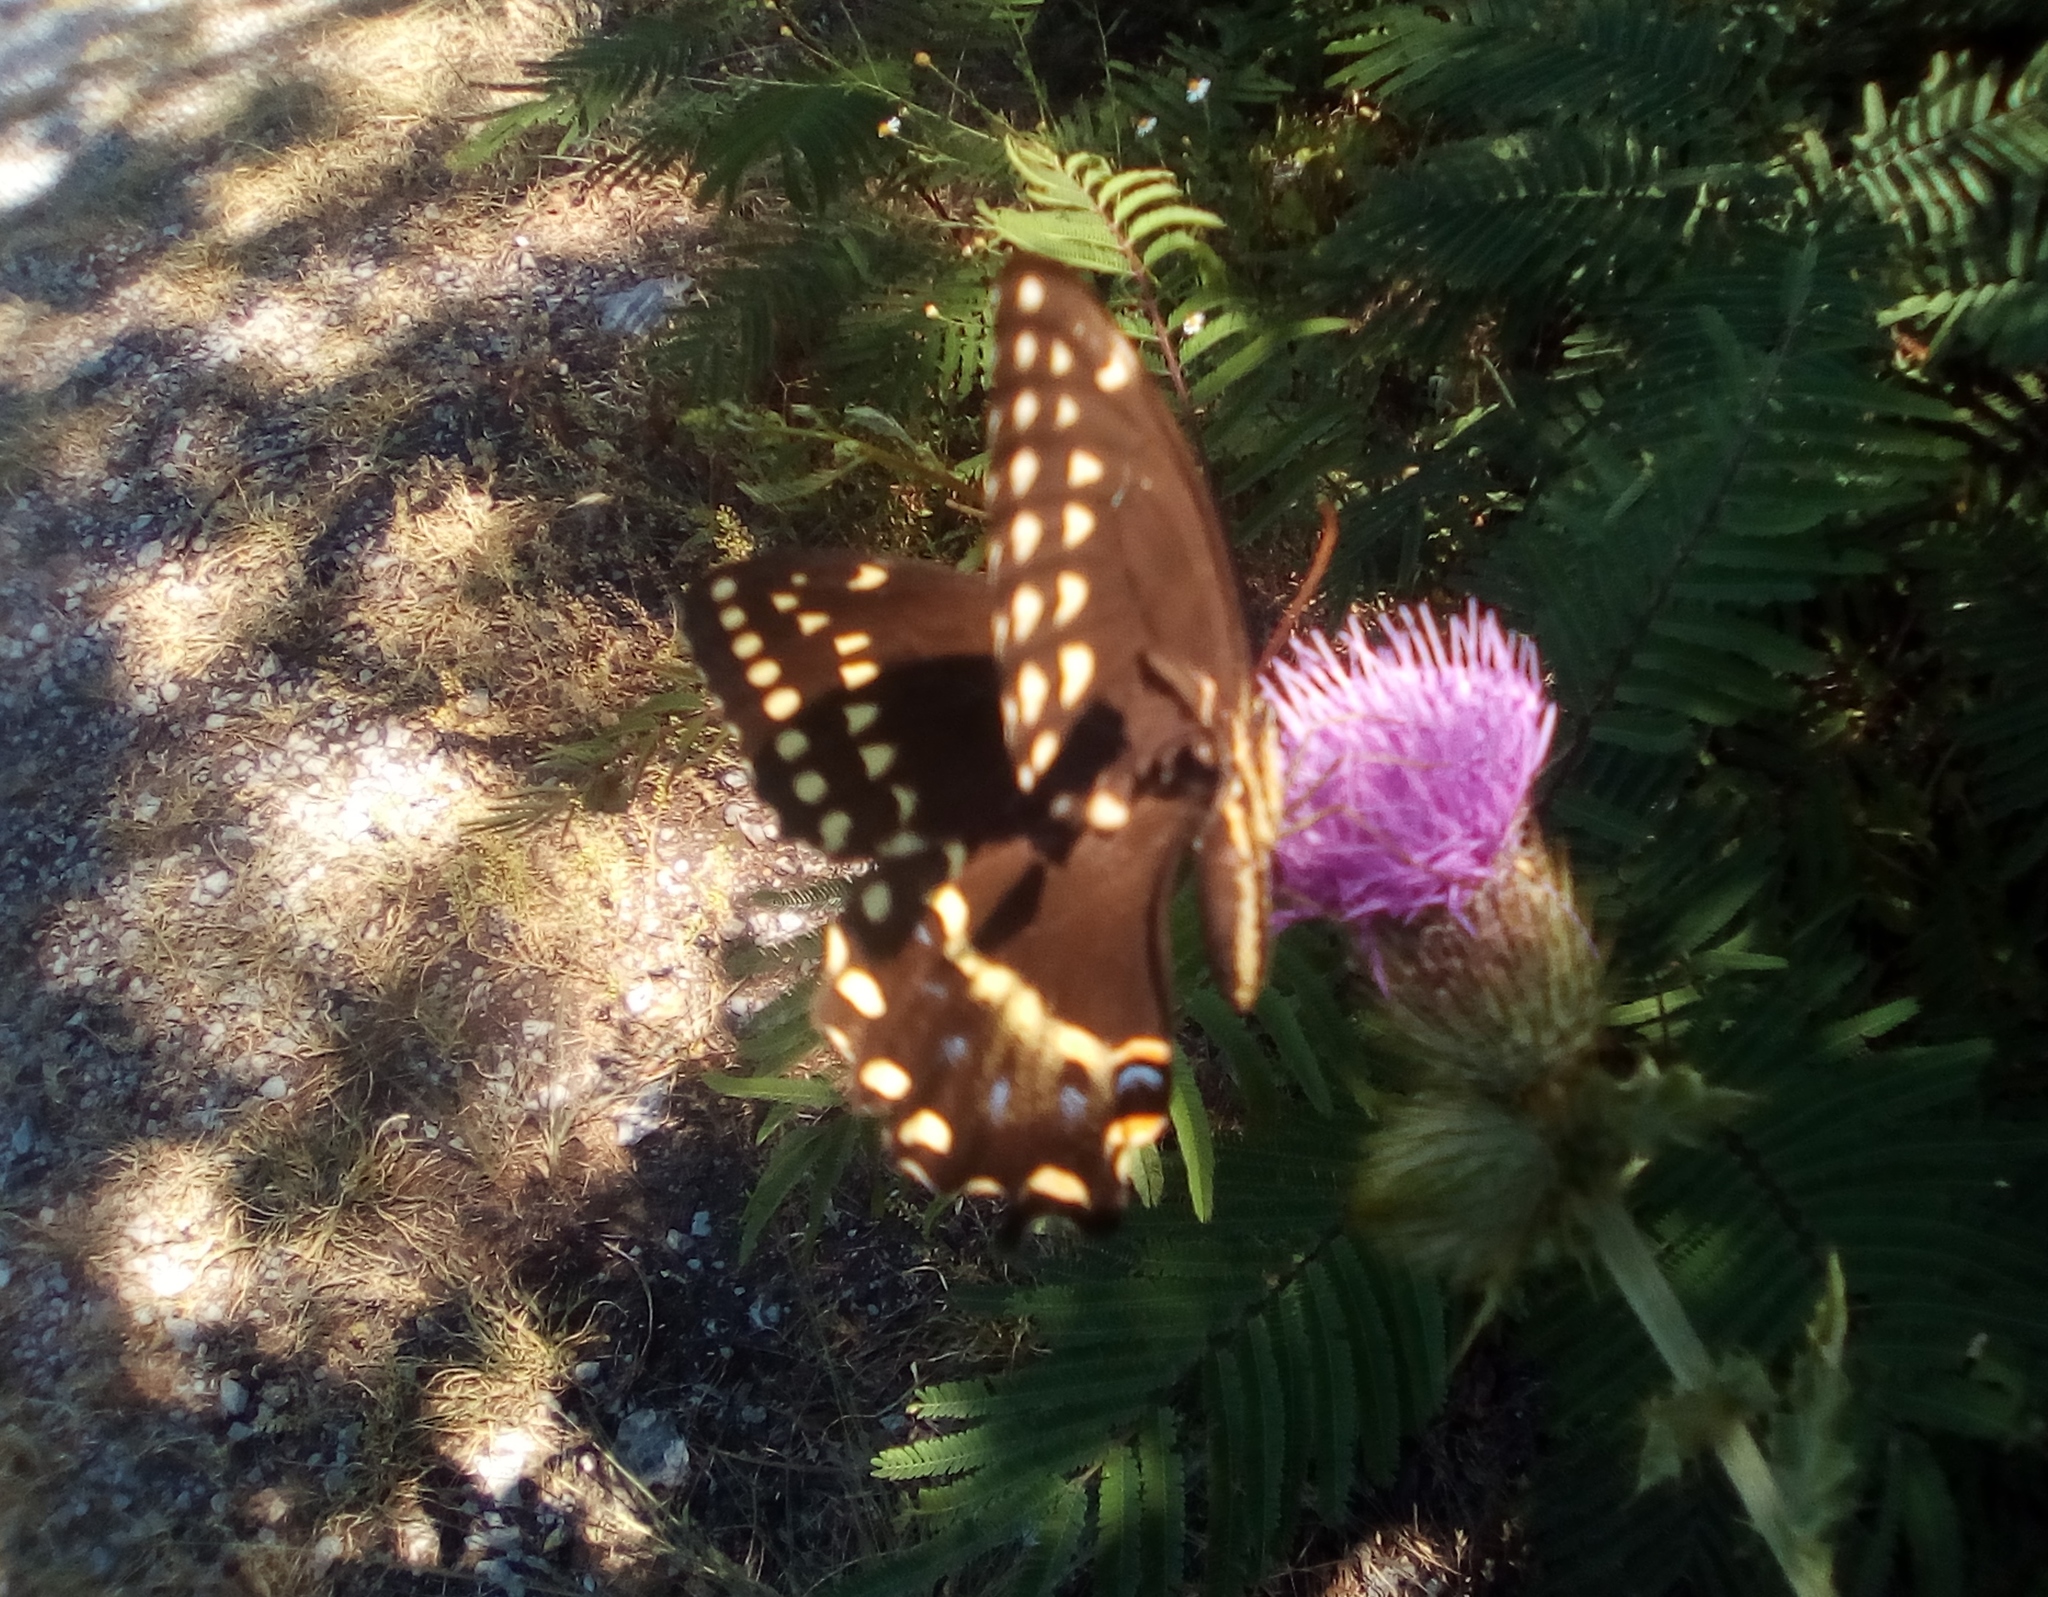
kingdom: Animalia
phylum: Arthropoda
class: Insecta
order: Lepidoptera
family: Papilionidae
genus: Papilio
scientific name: Papilio palamedes
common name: Palamedes swallowtail
